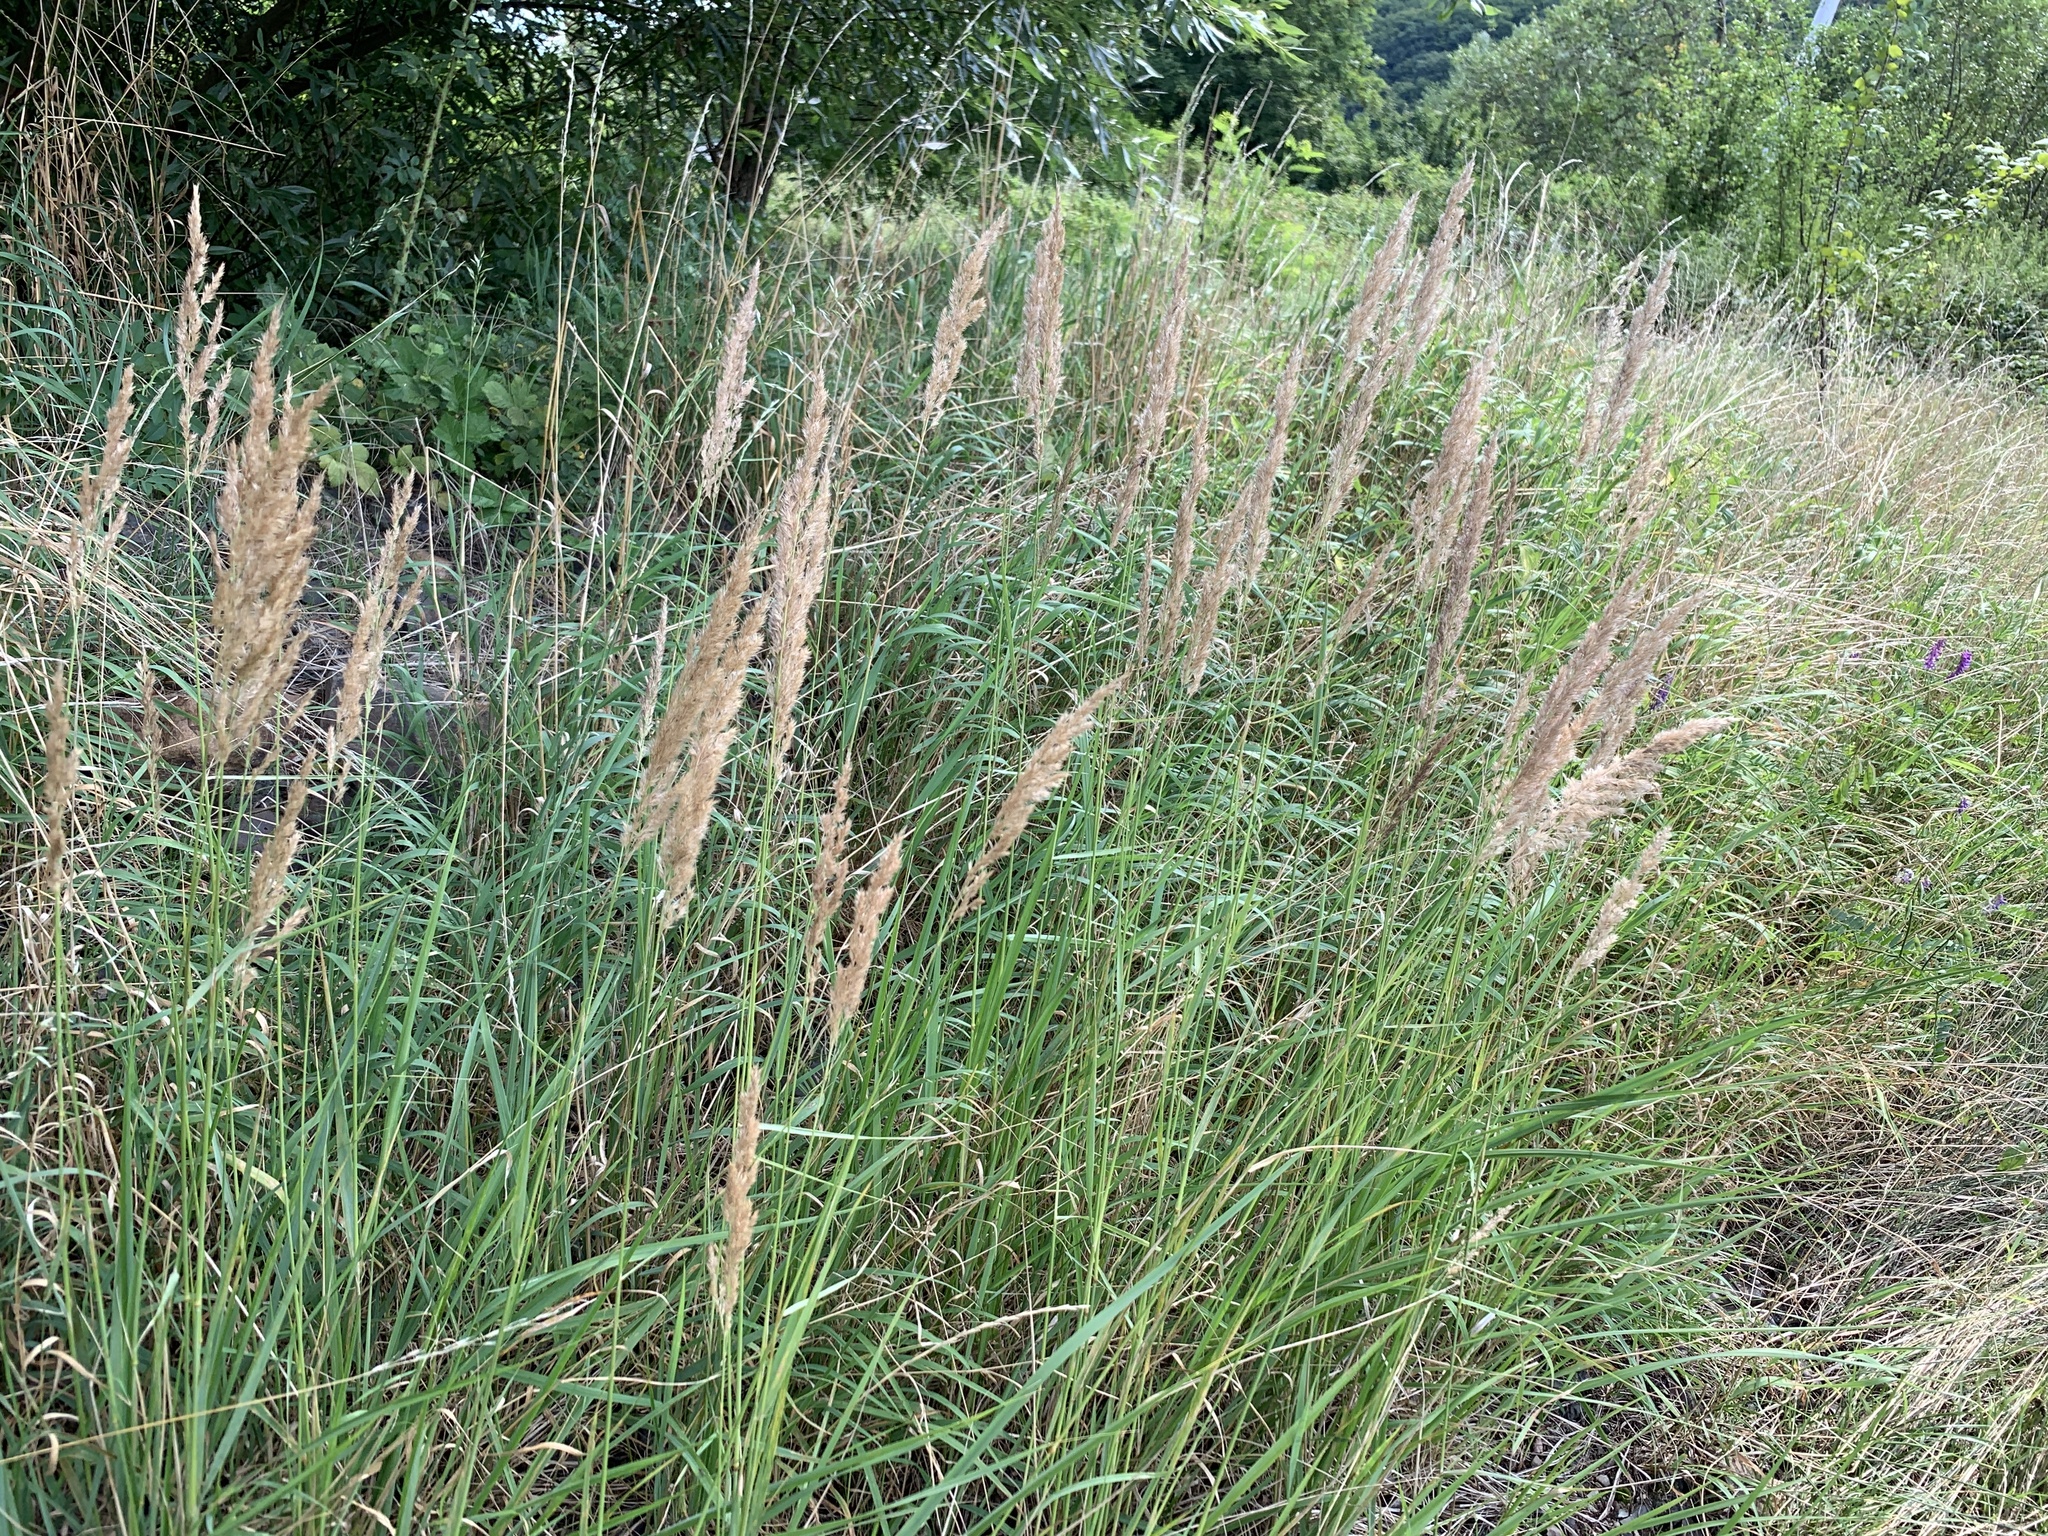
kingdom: Plantae
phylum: Tracheophyta
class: Liliopsida
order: Poales
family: Poaceae
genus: Calamagrostis
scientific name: Calamagrostis epigejos
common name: Wood small-reed
